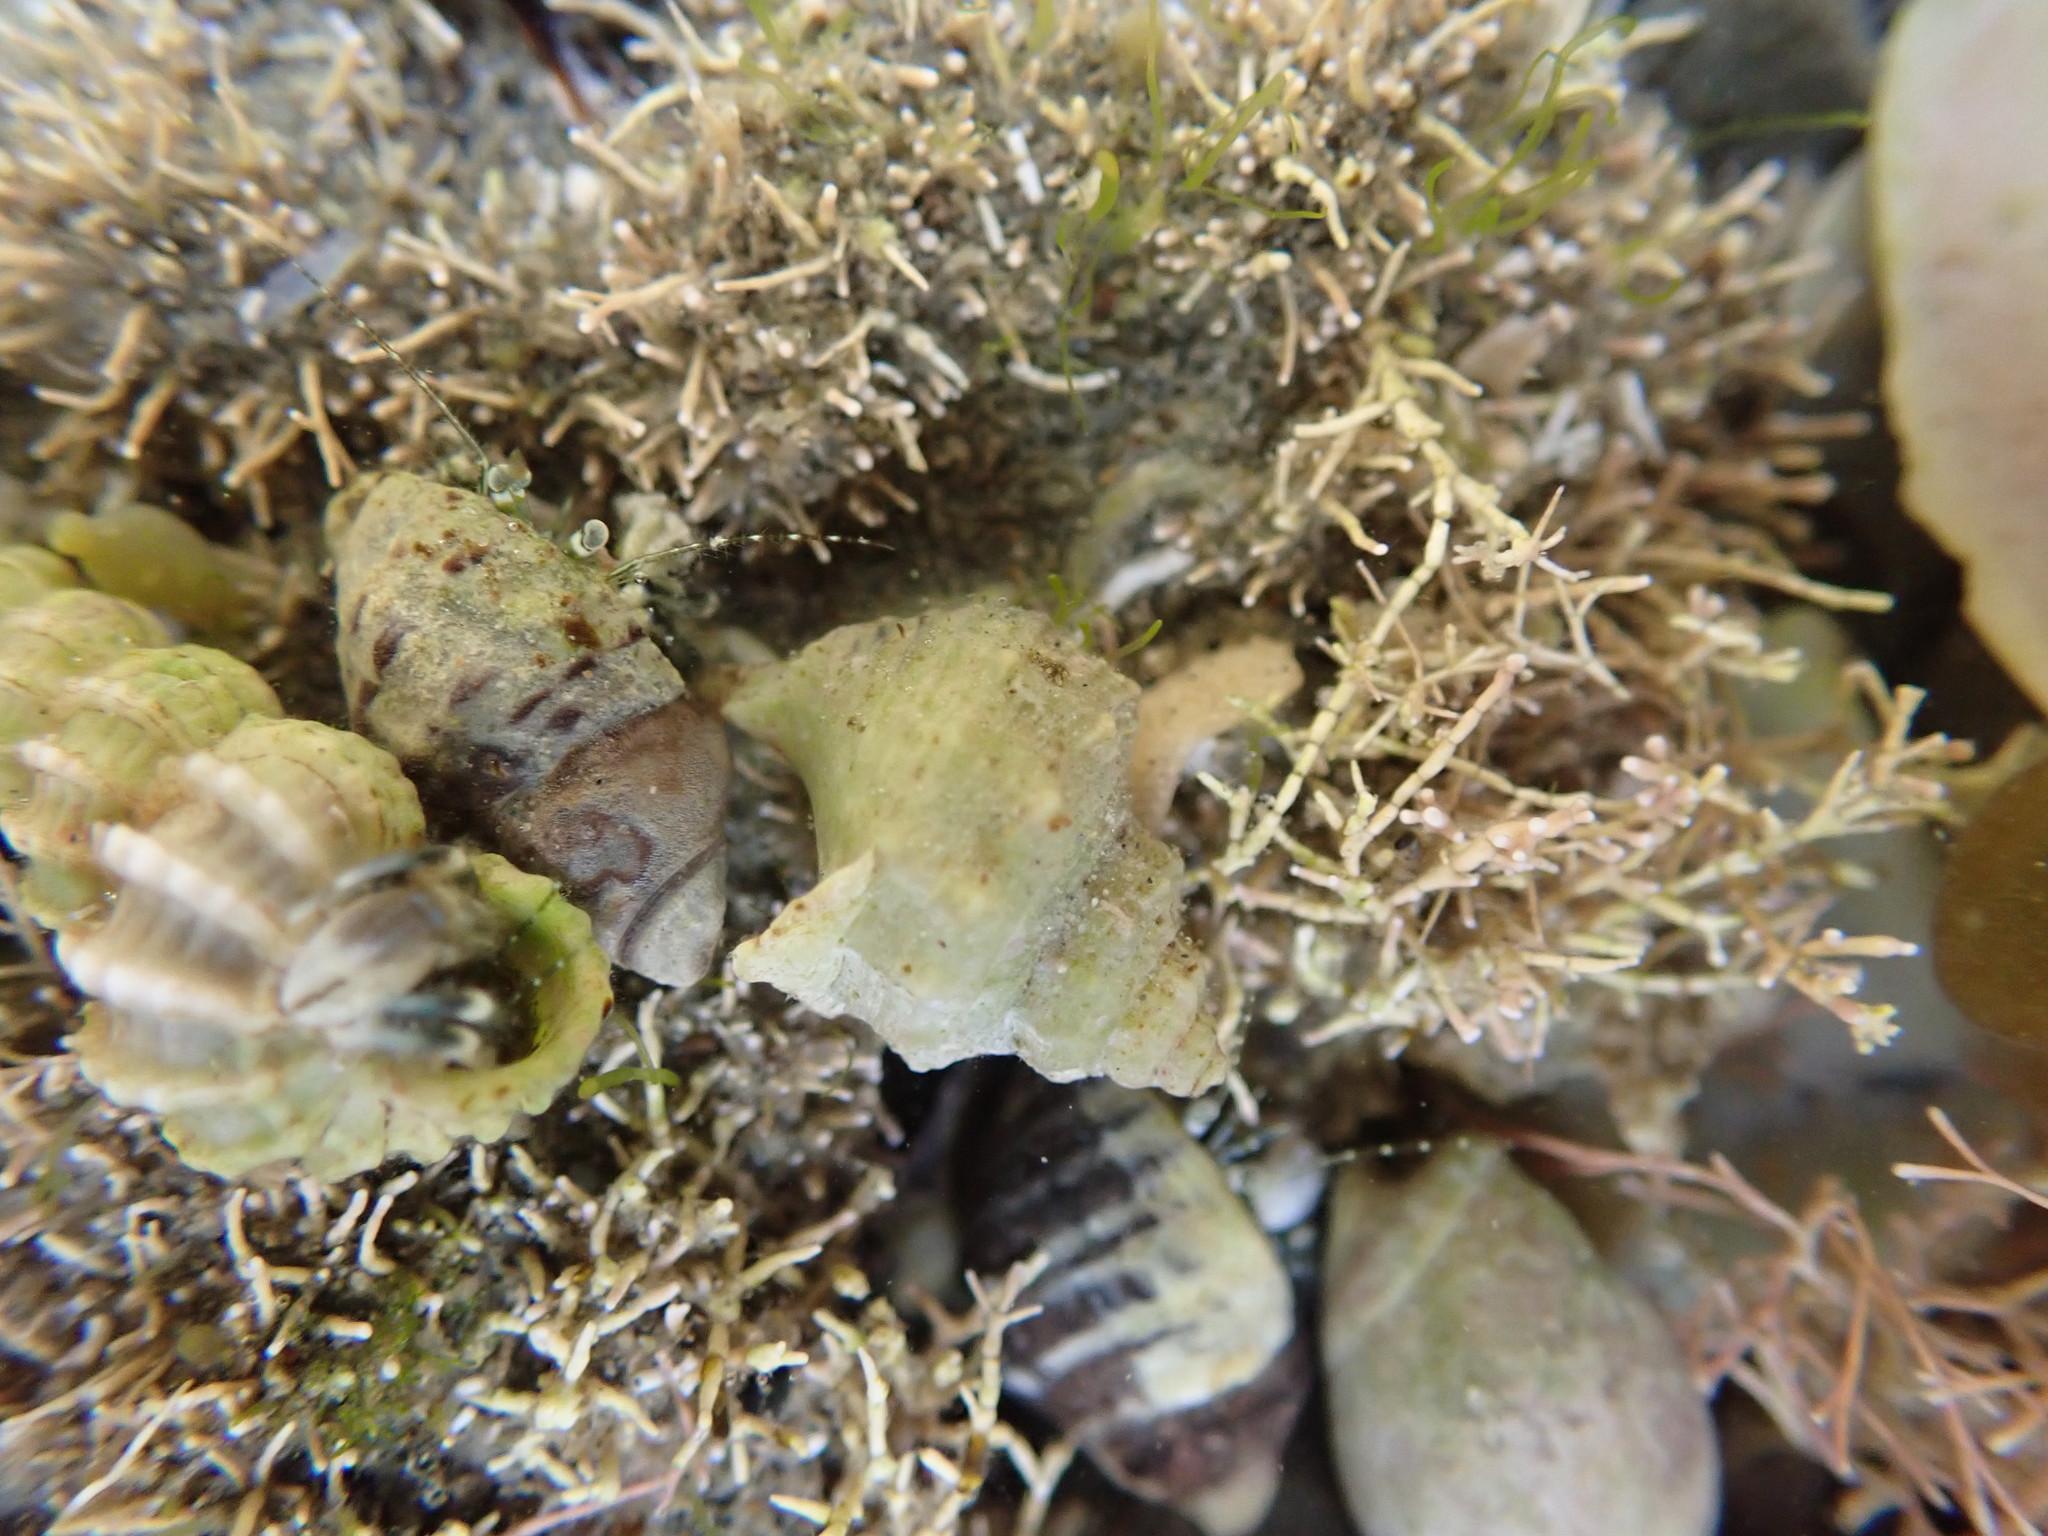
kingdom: Animalia
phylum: Mollusca
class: Gastropoda
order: Neogastropoda
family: Prosiphonidae
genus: Austrofusus
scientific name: Austrofusus glans
